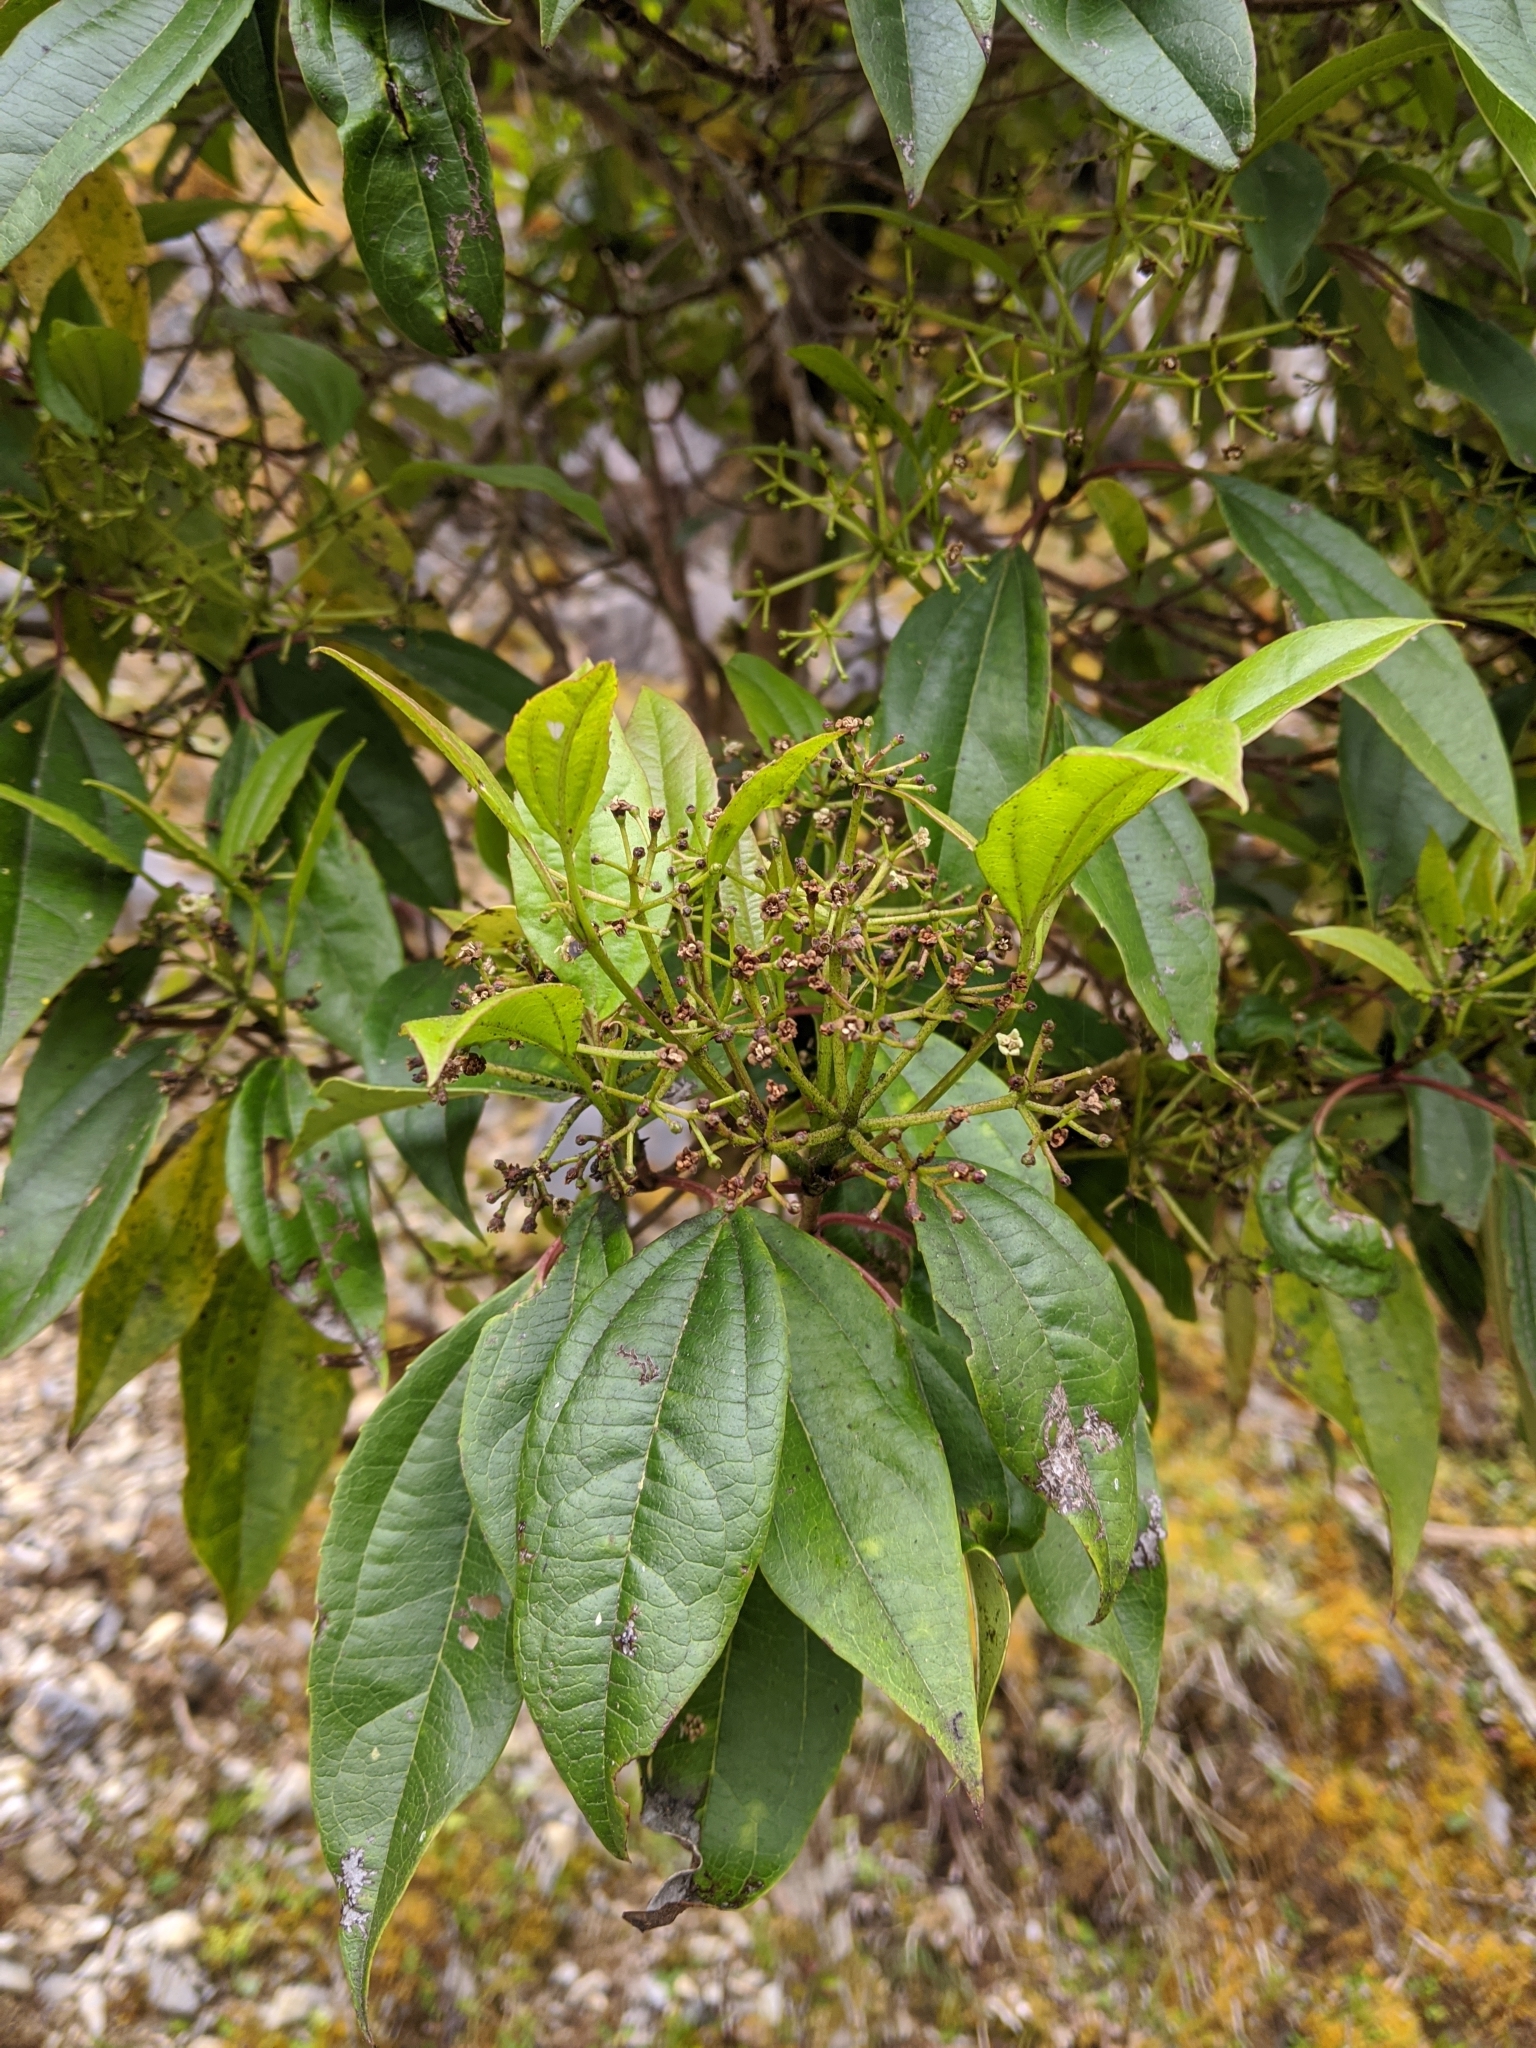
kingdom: Plantae
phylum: Tracheophyta
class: Magnoliopsida
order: Dipsacales
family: Viburnaceae
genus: Viburnum
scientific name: Viburnum propinquum
